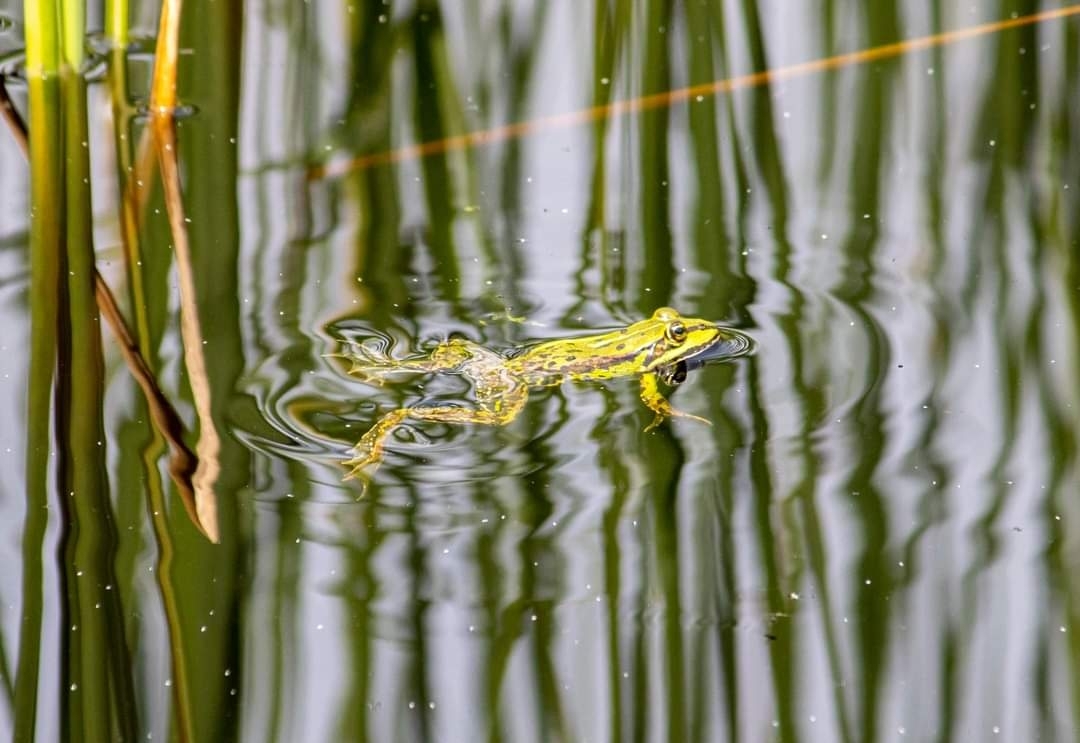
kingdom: Animalia
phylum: Chordata
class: Amphibia
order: Anura
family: Ranidae
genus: Pelophylax
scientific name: Pelophylax lessonae
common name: Pool frog
